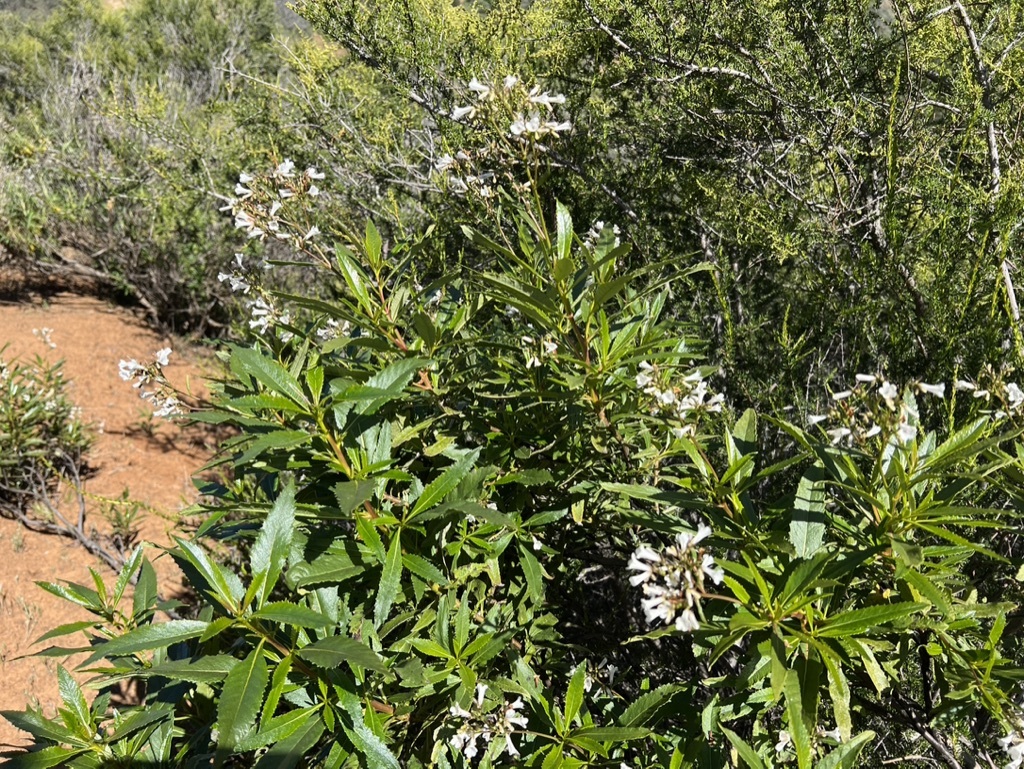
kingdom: Plantae
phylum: Tracheophyta
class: Magnoliopsida
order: Boraginales
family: Namaceae
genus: Eriodictyon
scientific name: Eriodictyon californicum
